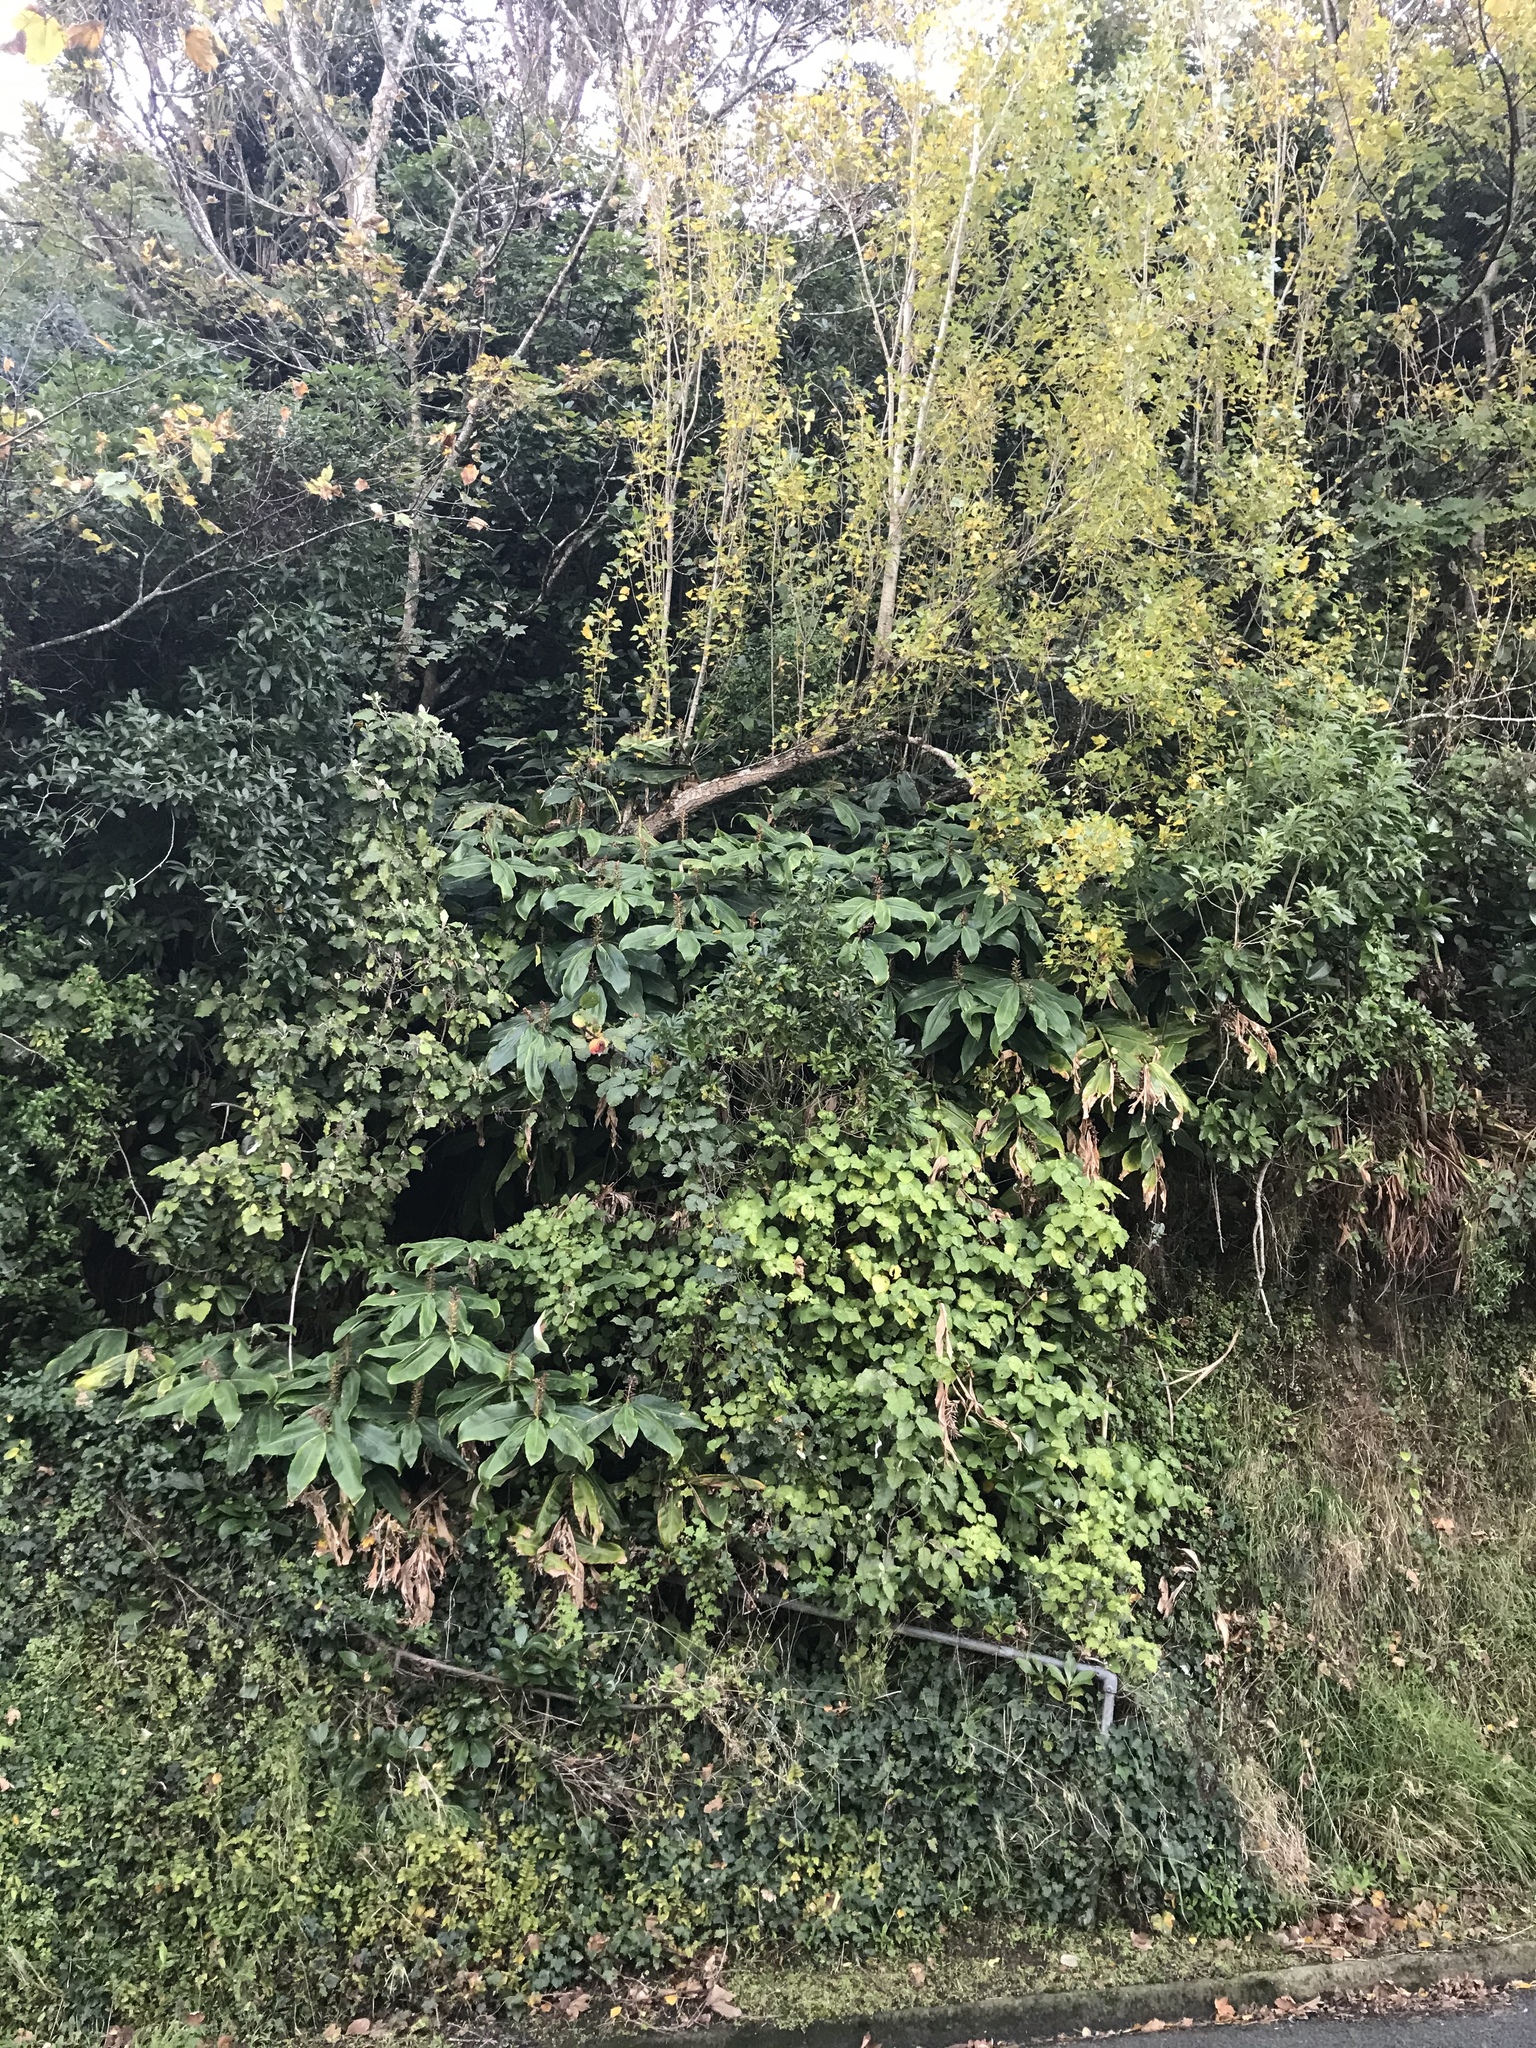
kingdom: Plantae
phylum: Tracheophyta
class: Liliopsida
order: Zingiberales
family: Zingiberaceae
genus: Hedychium
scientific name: Hedychium gardnerianum
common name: Himalayan ginger
